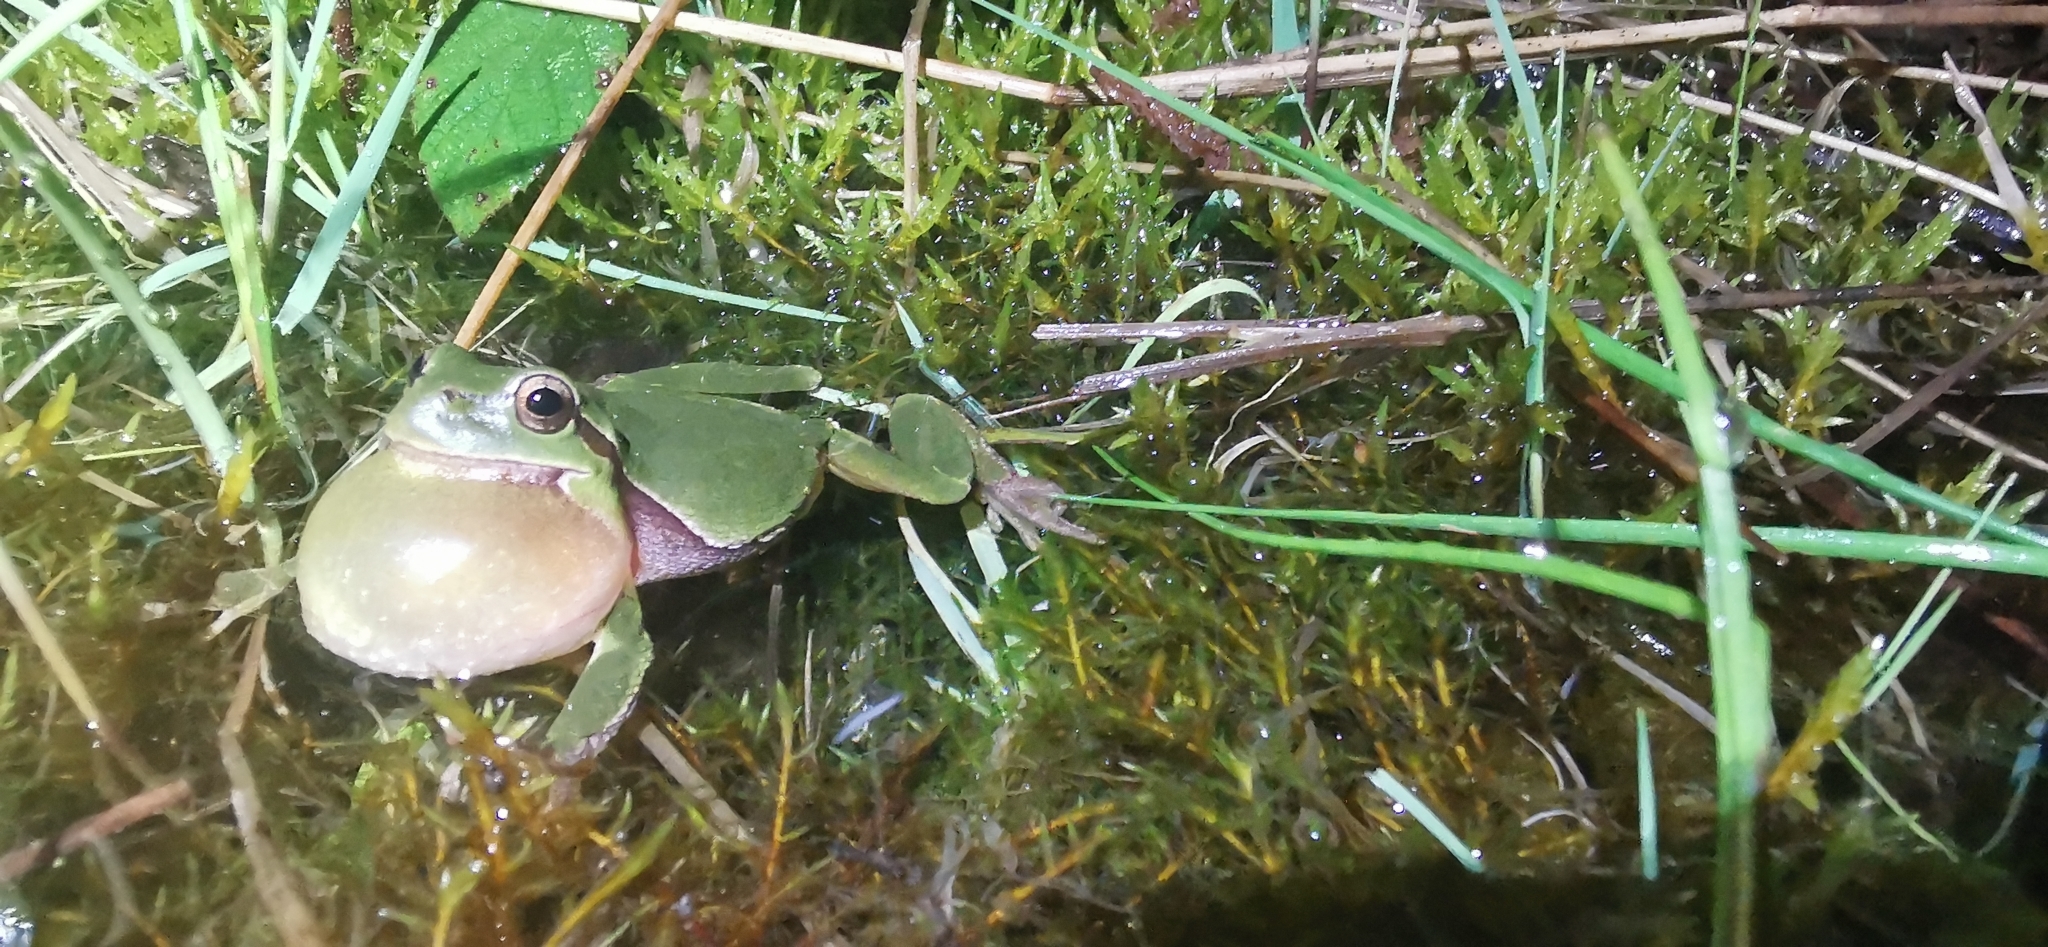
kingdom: Animalia
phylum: Chordata
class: Amphibia
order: Anura
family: Hylidae
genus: Hyla
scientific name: Hyla arborea
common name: Common tree frog
